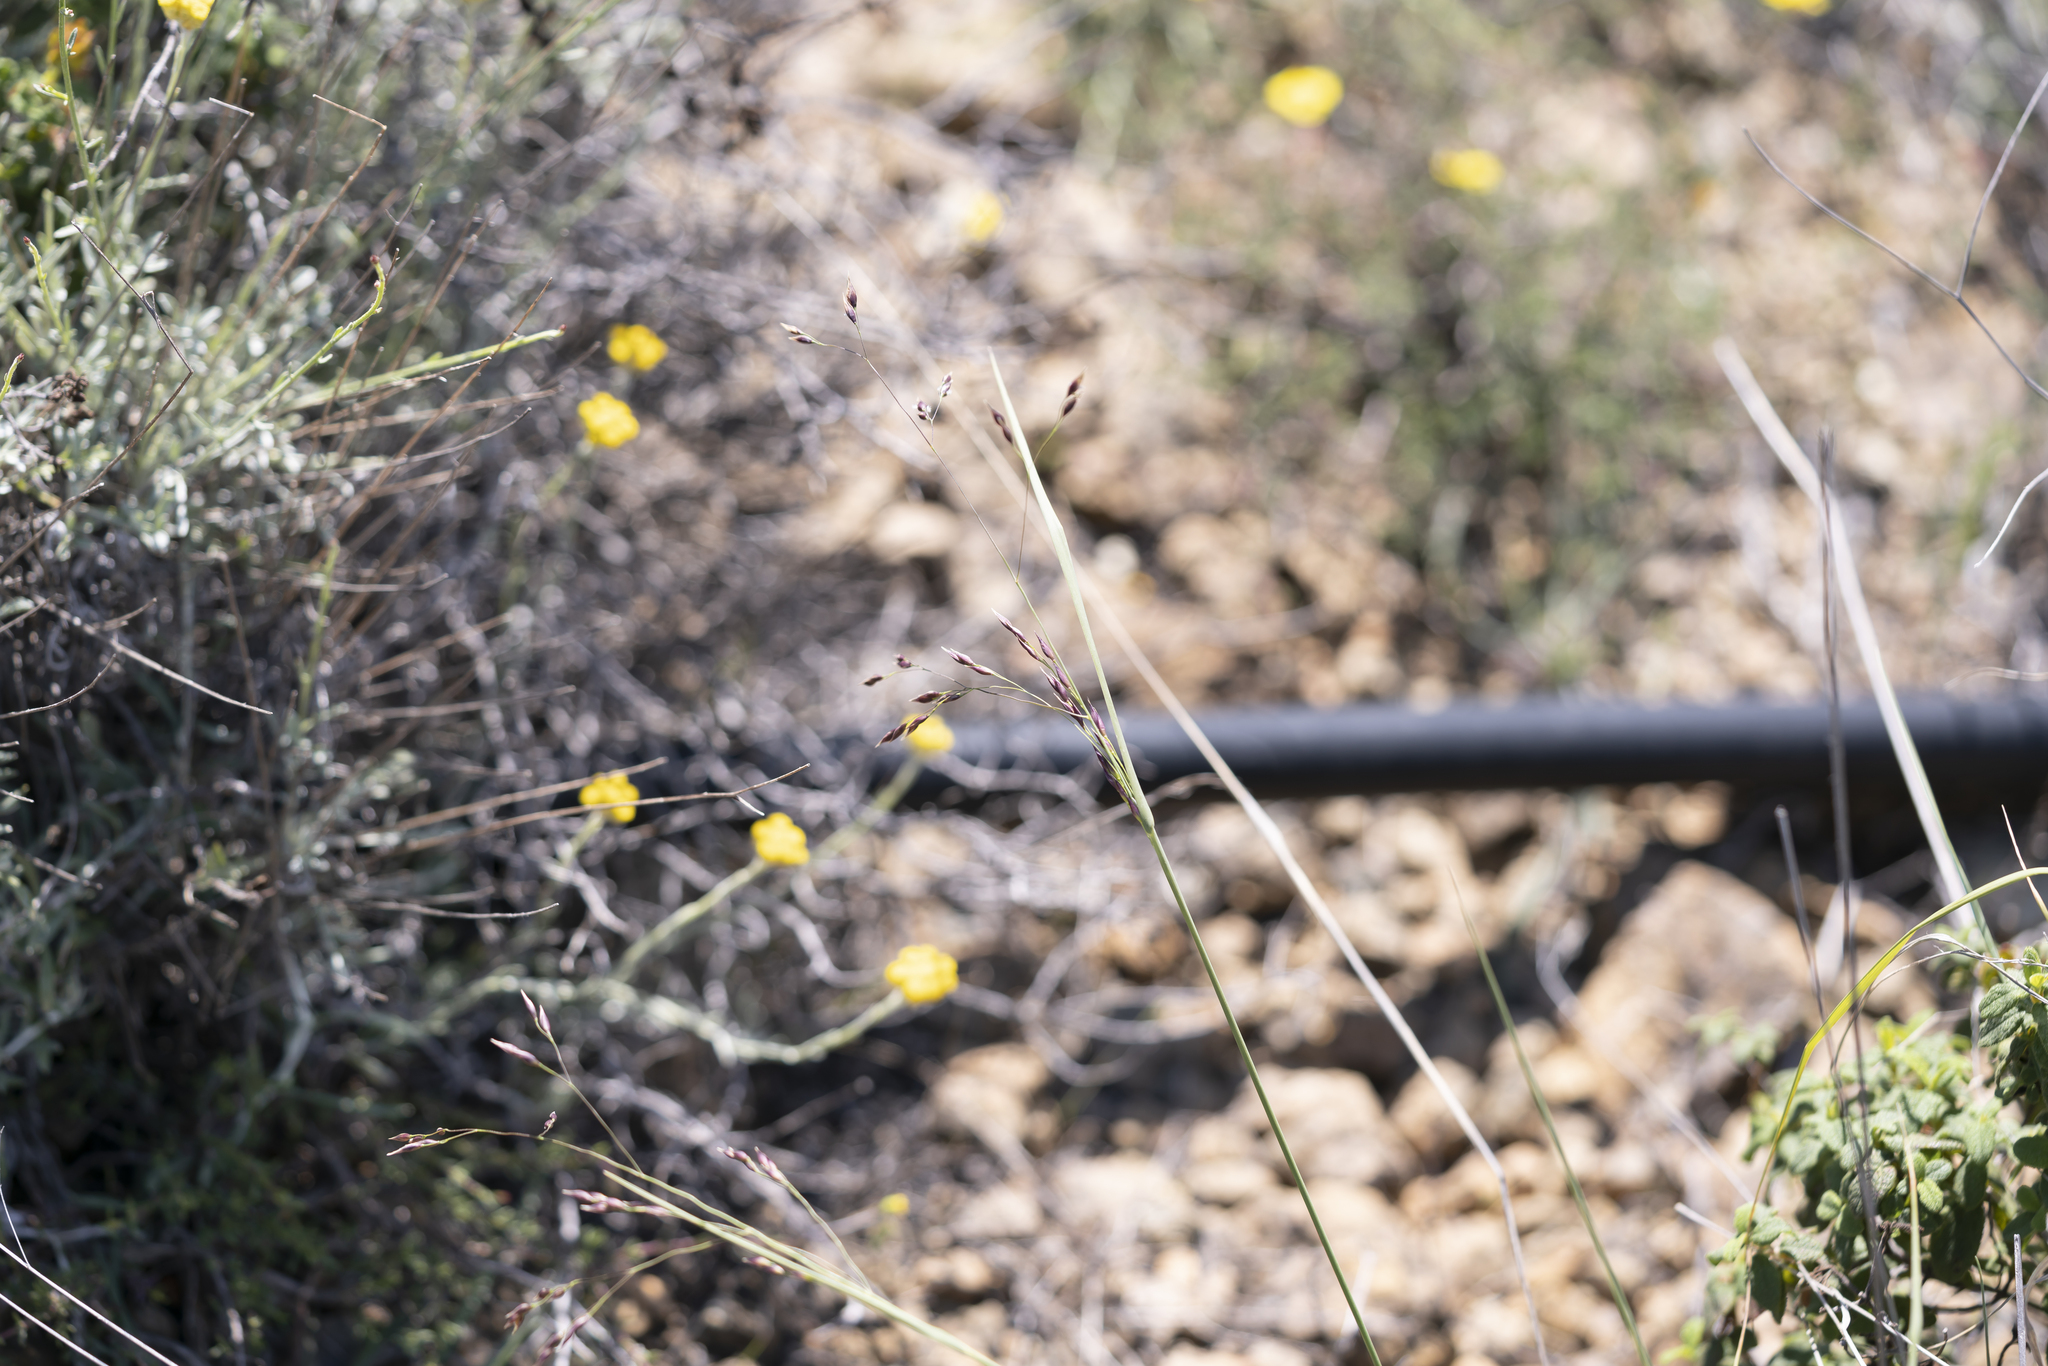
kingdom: Plantae
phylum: Tracheophyta
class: Liliopsida
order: Poales
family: Poaceae
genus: Oryzopsis
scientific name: Oryzopsis coerulescens
